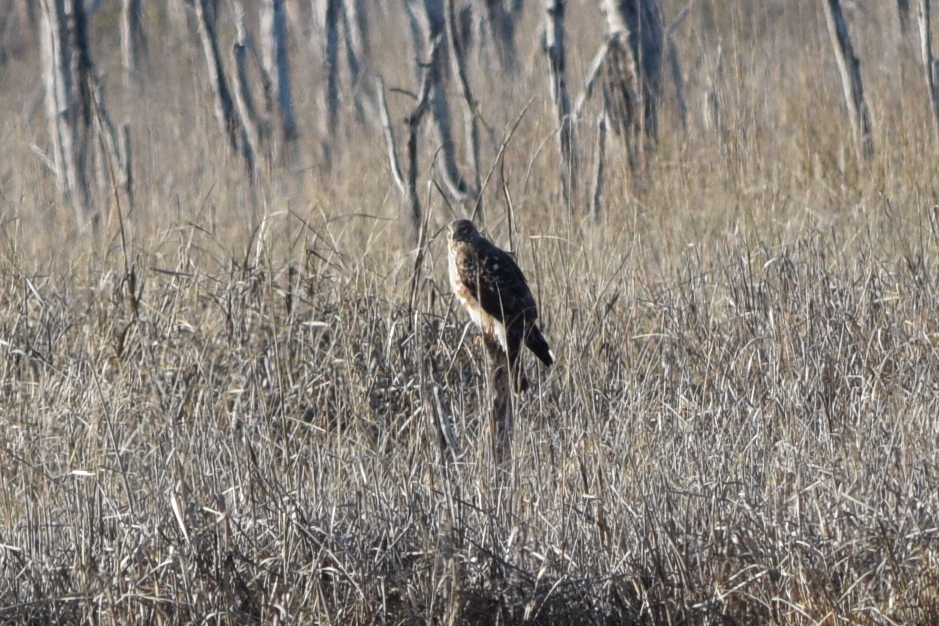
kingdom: Animalia
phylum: Chordata
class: Aves
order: Accipitriformes
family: Accipitridae
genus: Circus
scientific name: Circus cyaneus
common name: Hen harrier
